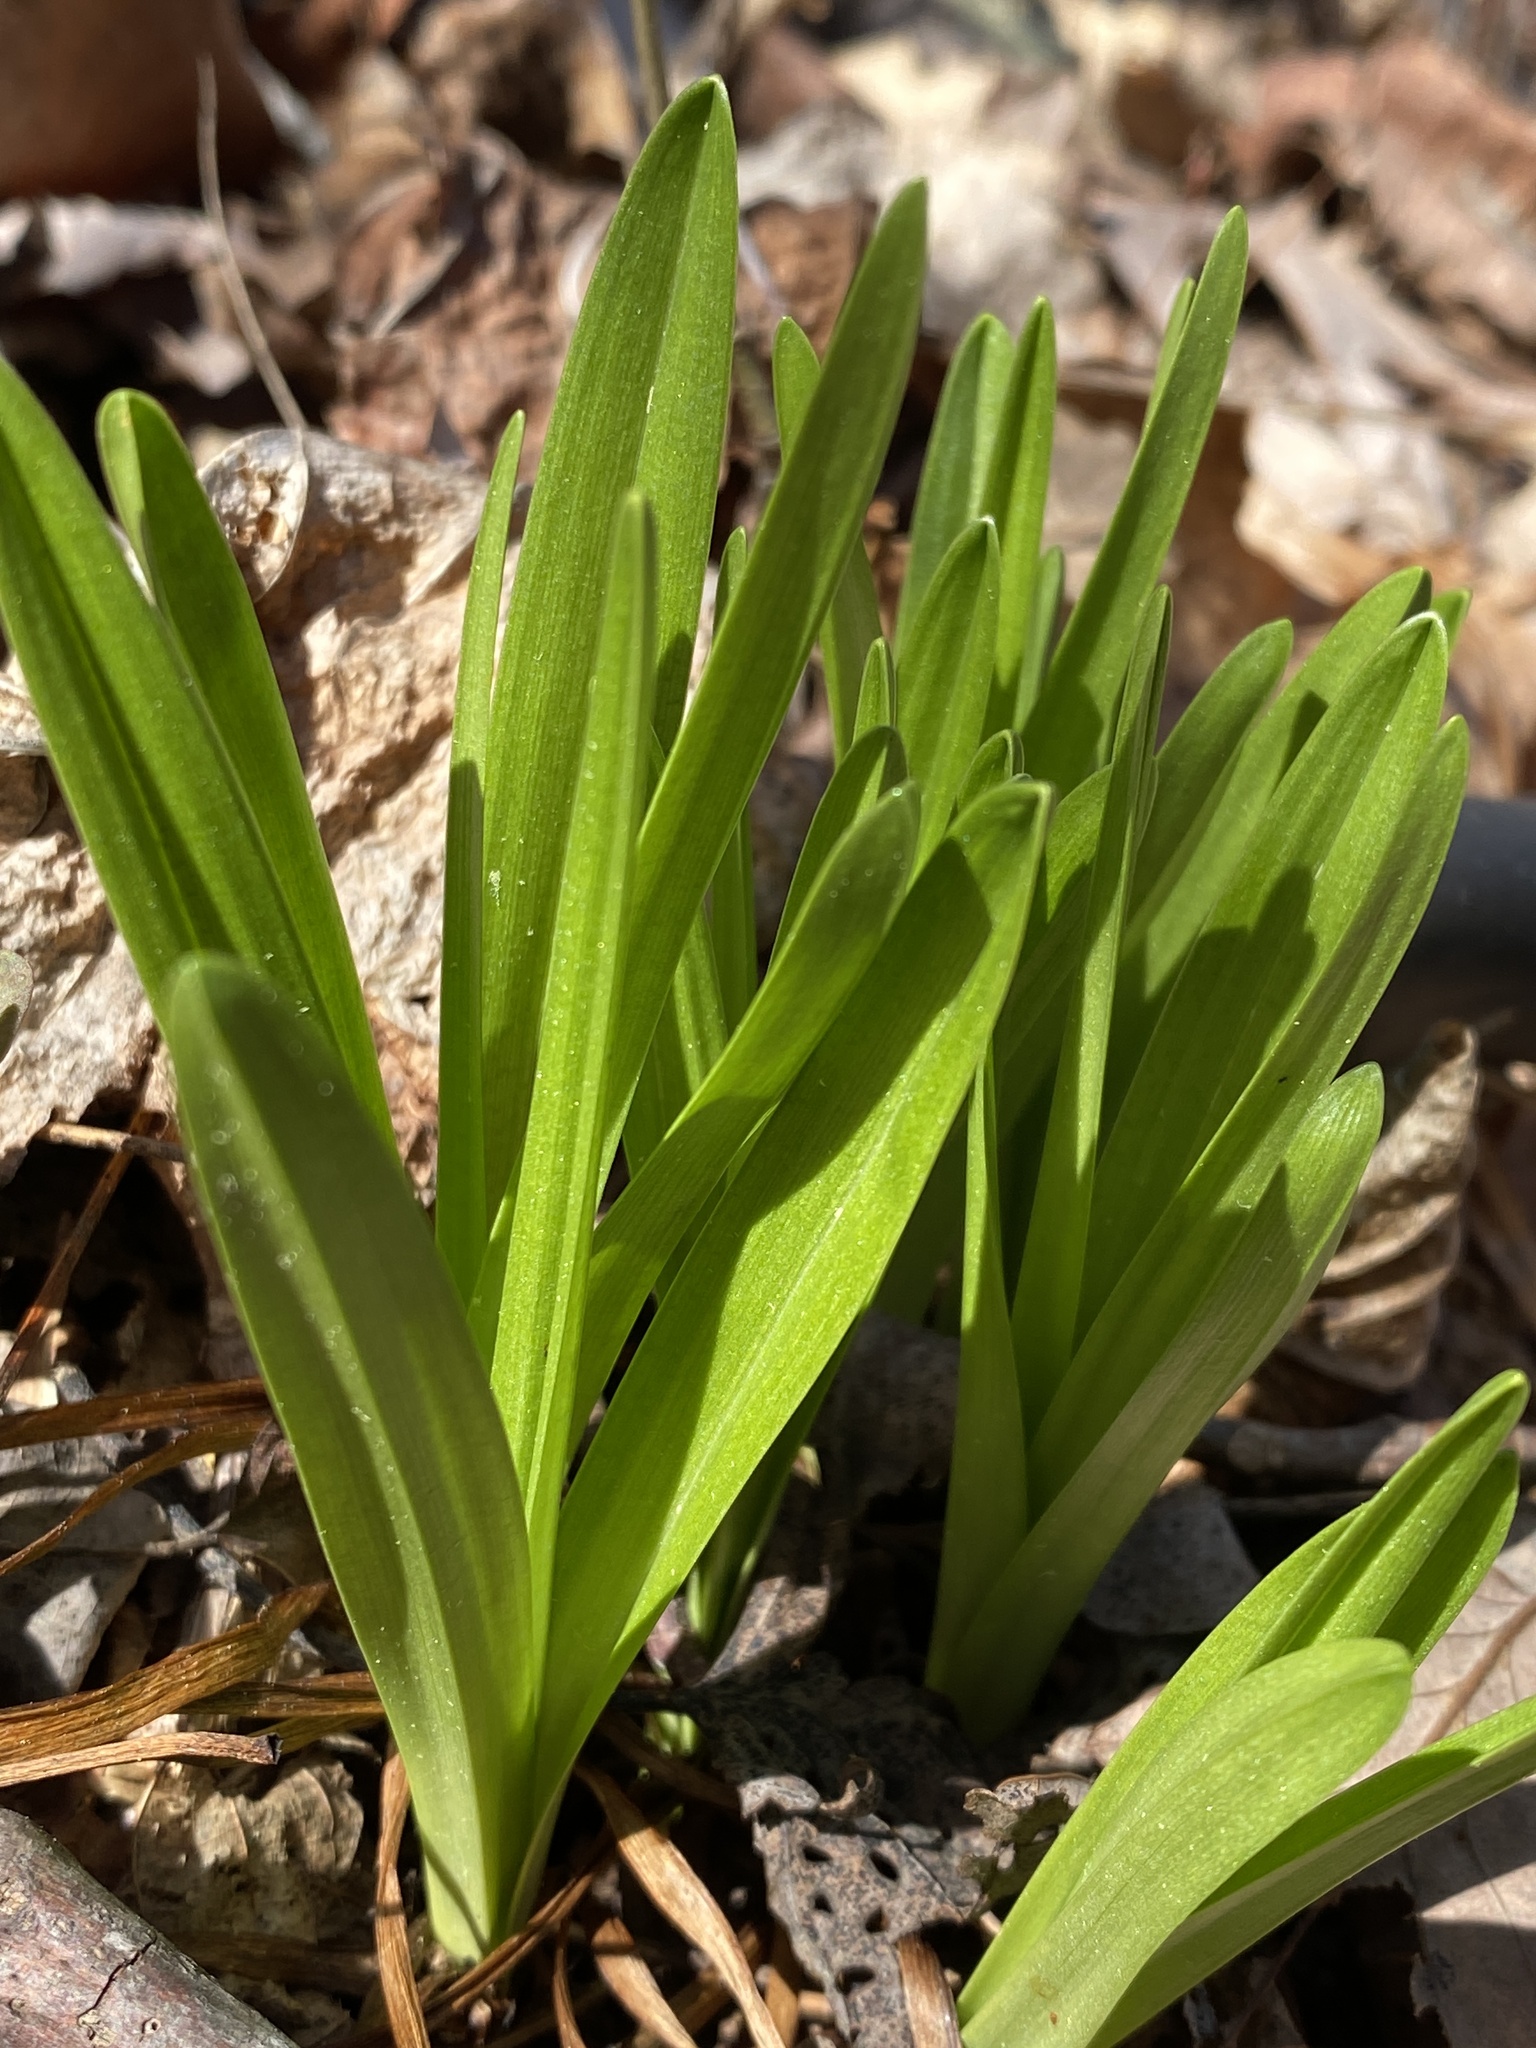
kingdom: Plantae
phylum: Tracheophyta
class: Liliopsida
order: Liliales
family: Melanthiaceae
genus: Amianthium
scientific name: Amianthium muscitoxicum
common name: Fly-poison
